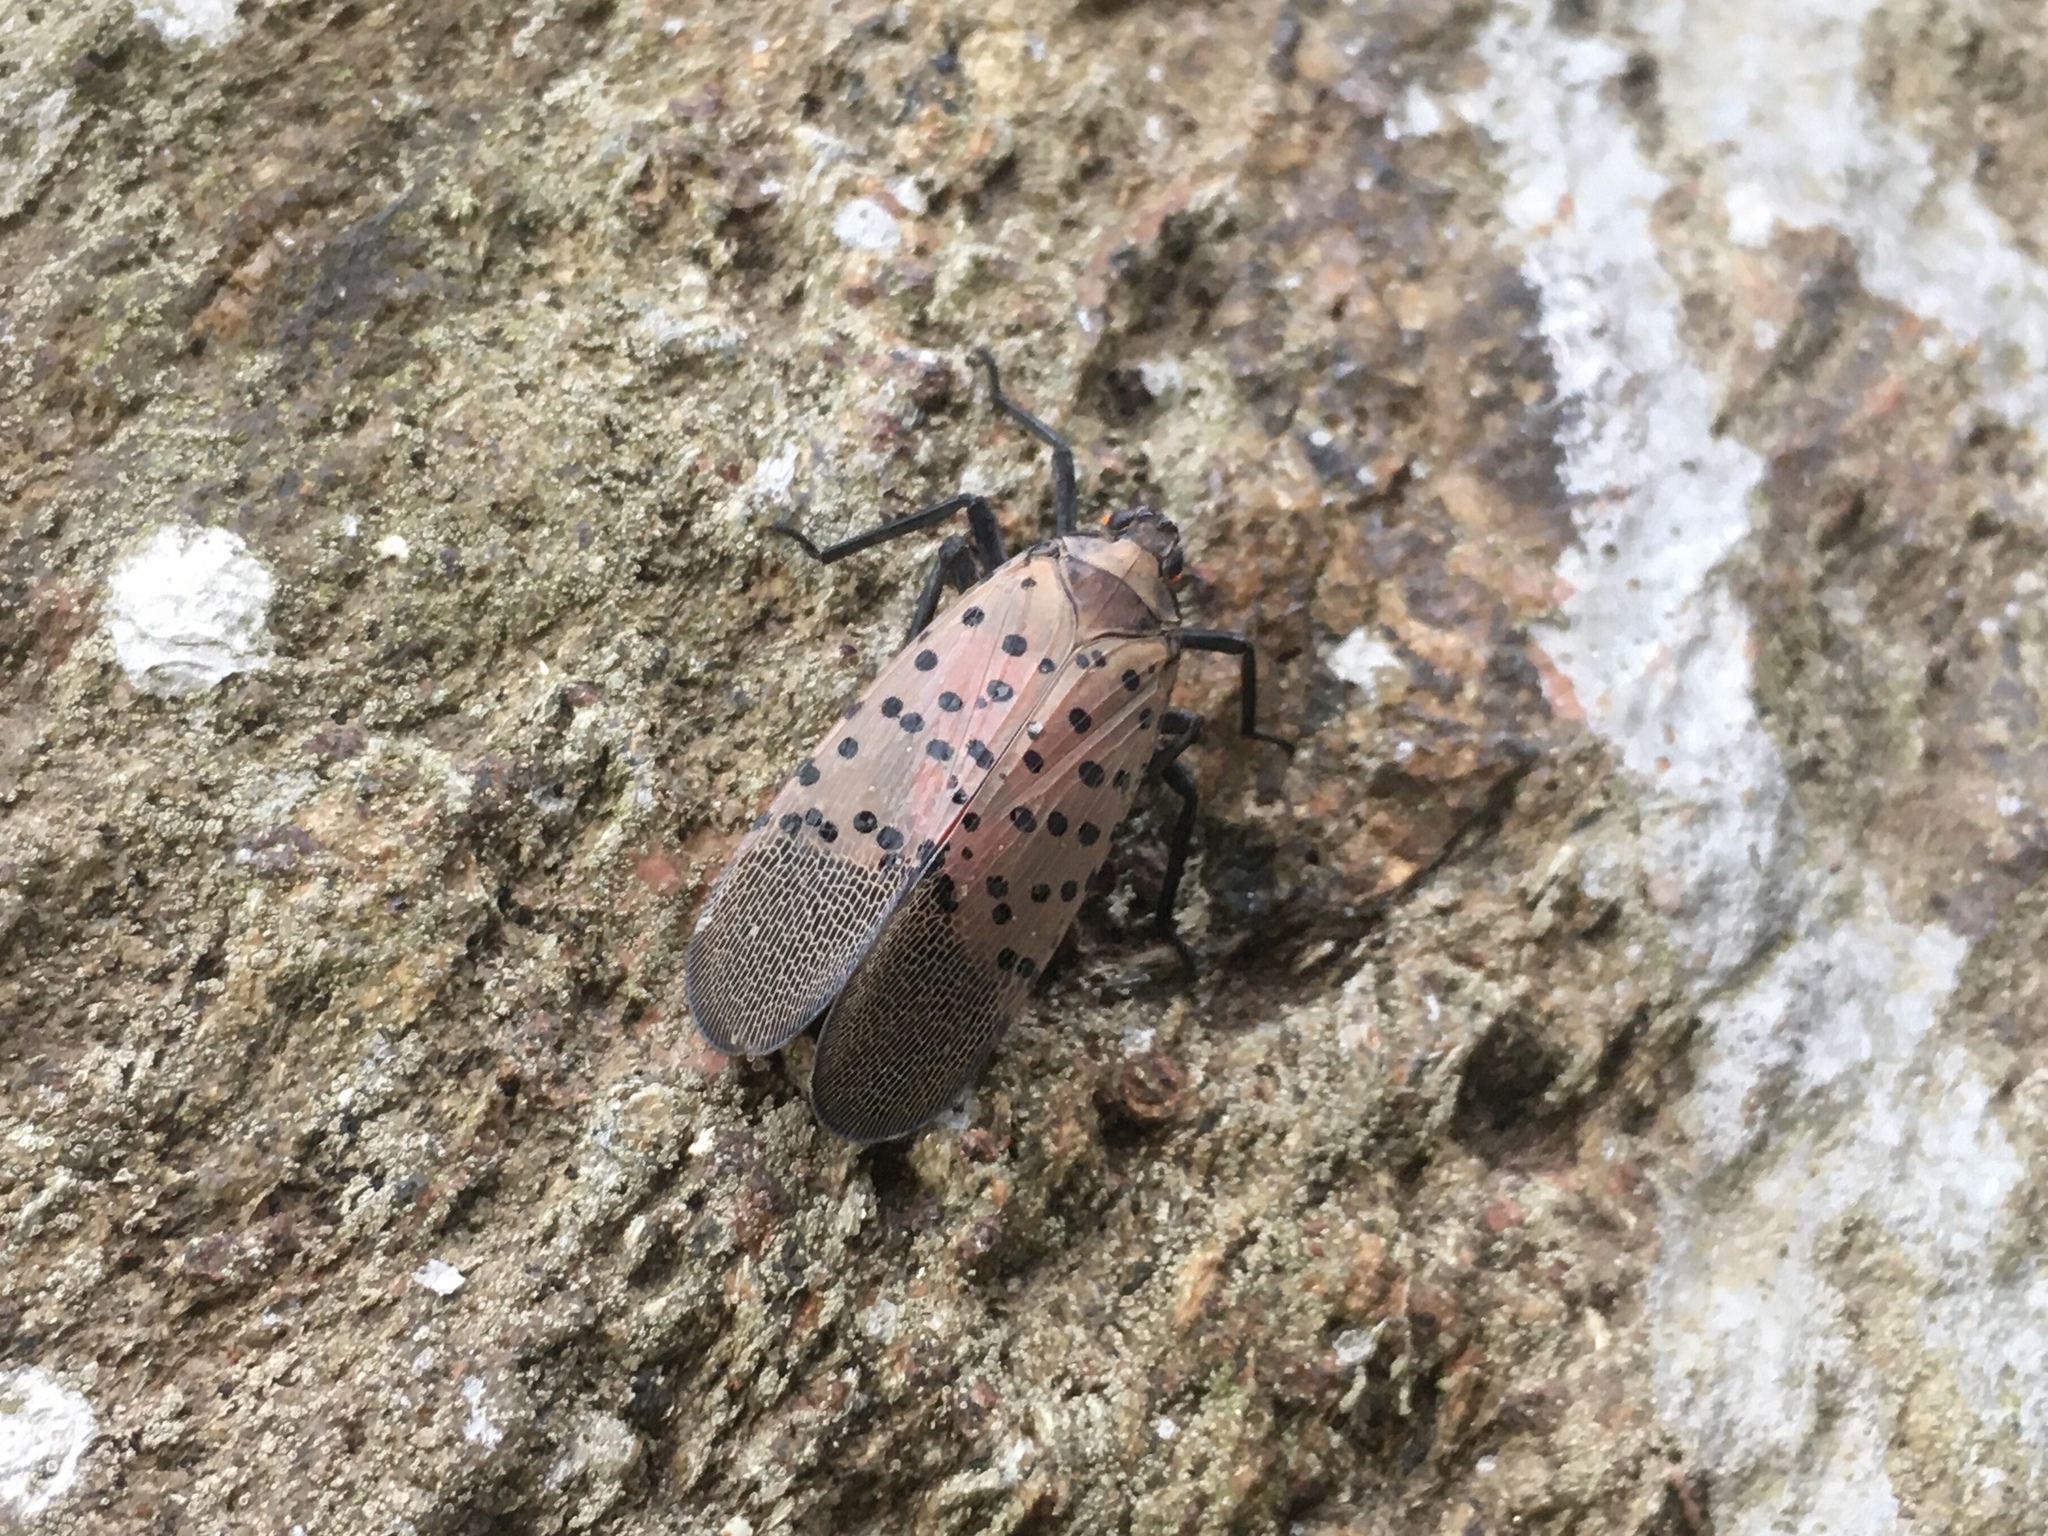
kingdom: Animalia
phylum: Arthropoda
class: Insecta
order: Hemiptera
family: Fulgoridae
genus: Lycorma
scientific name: Lycorma delicatula
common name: Spotted lanternfly
